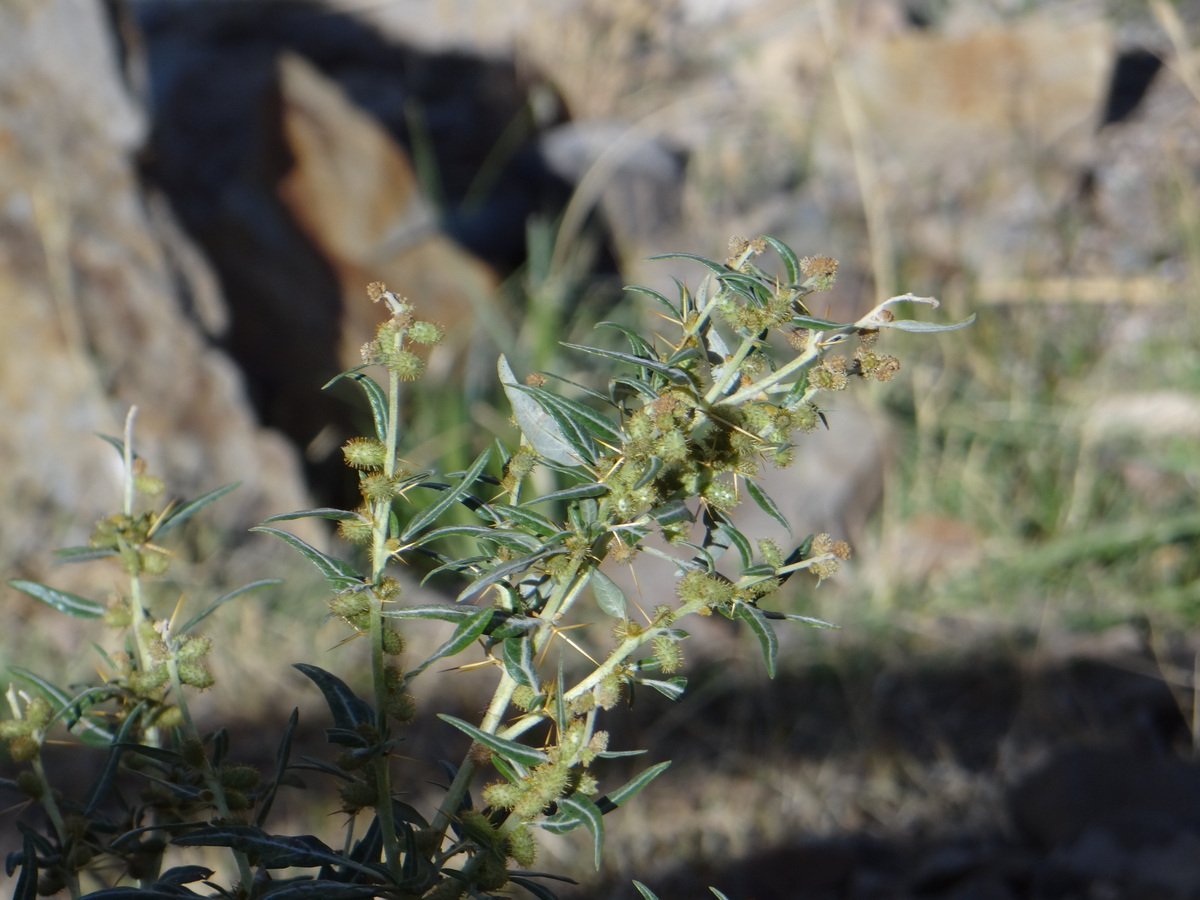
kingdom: Plantae
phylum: Tracheophyta
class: Magnoliopsida
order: Asterales
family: Asteraceae
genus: Xanthium
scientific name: Xanthium spinosum
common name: Spiny cocklebur
